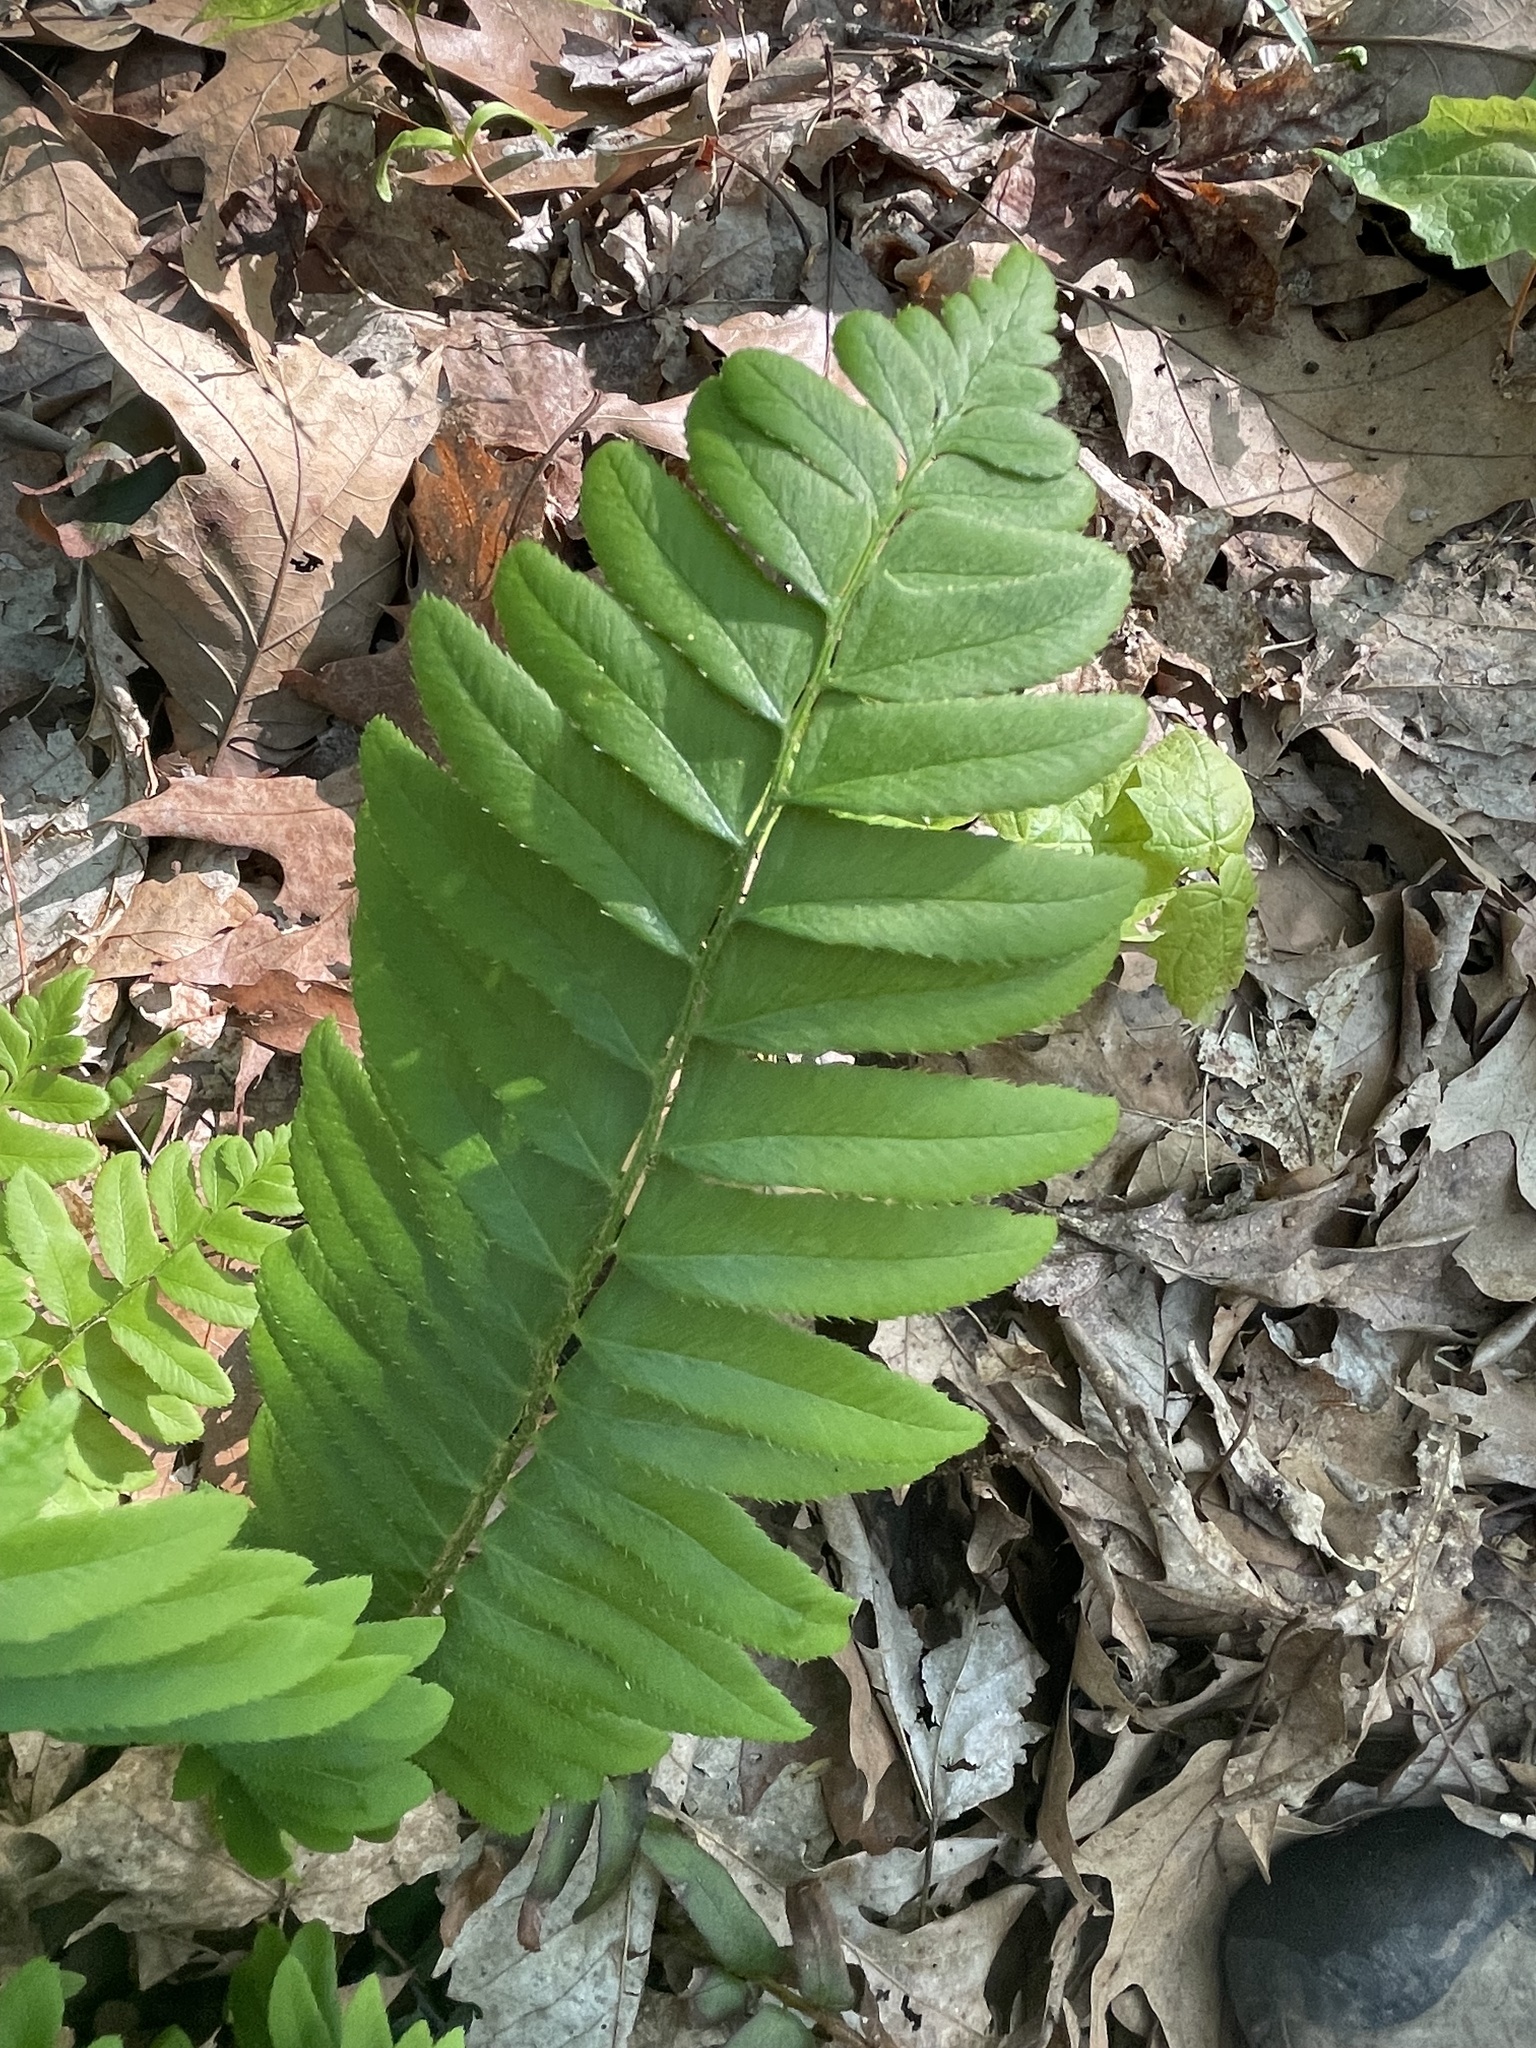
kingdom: Plantae
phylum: Tracheophyta
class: Polypodiopsida
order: Polypodiales
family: Dryopteridaceae
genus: Polystichum
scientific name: Polystichum acrostichoides
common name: Christmas fern
